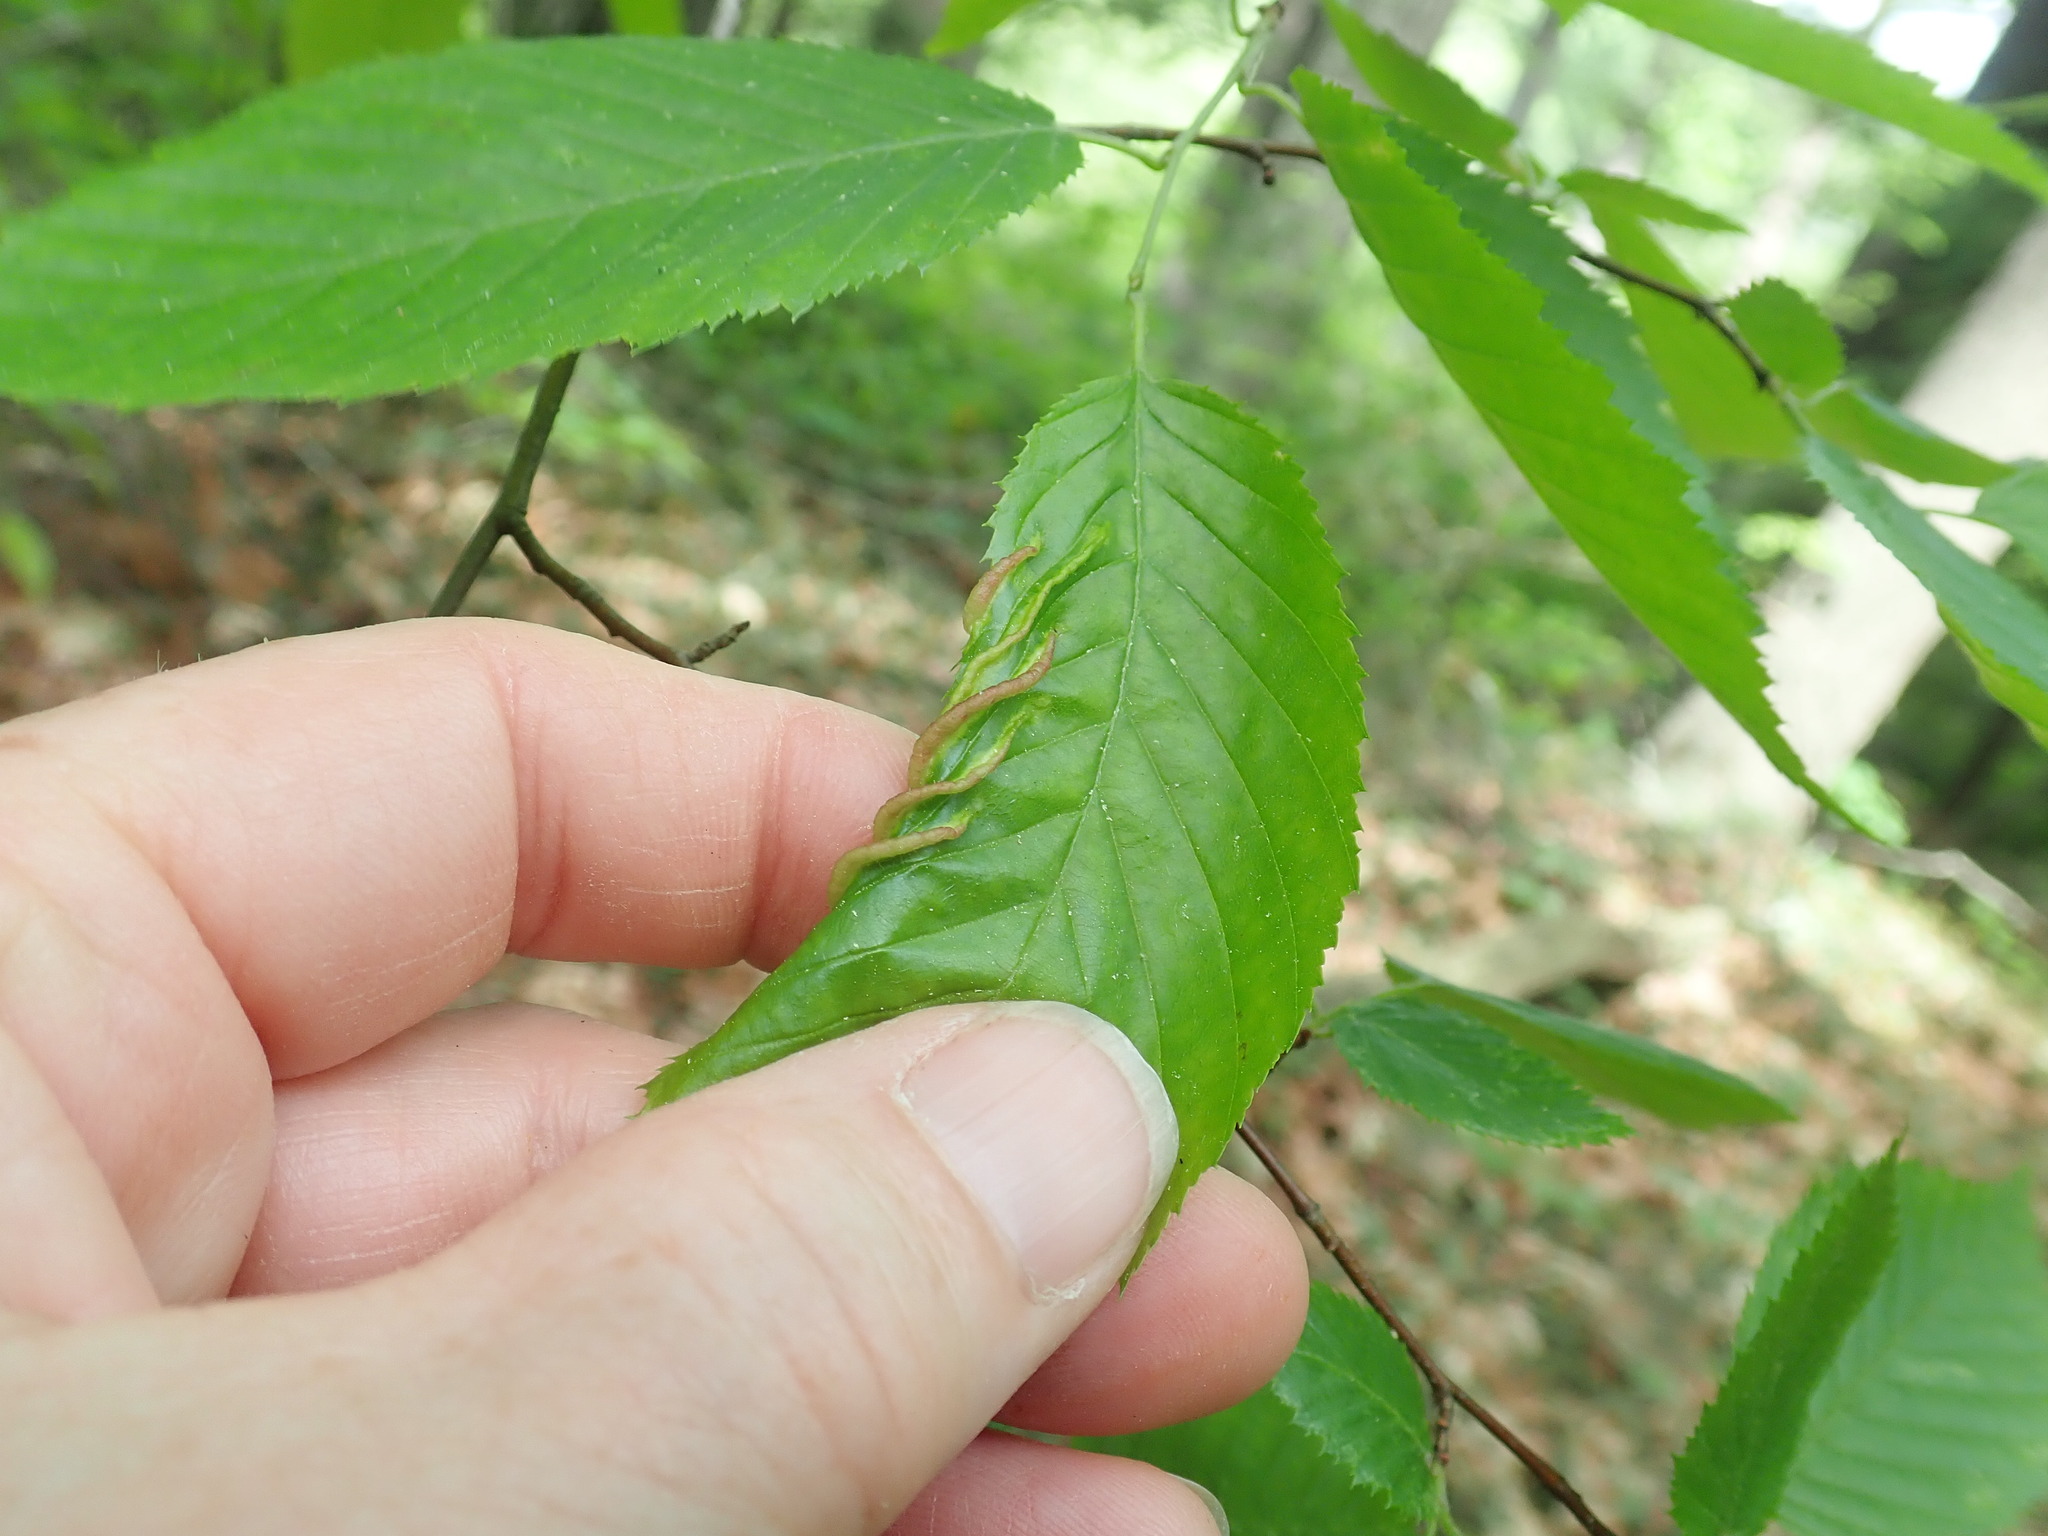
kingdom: Animalia
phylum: Arthropoda
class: Insecta
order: Diptera
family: Cecidomyiidae
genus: Dasineura
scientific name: Dasineura pudibunda
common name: Hornbeam leaf gall midge
